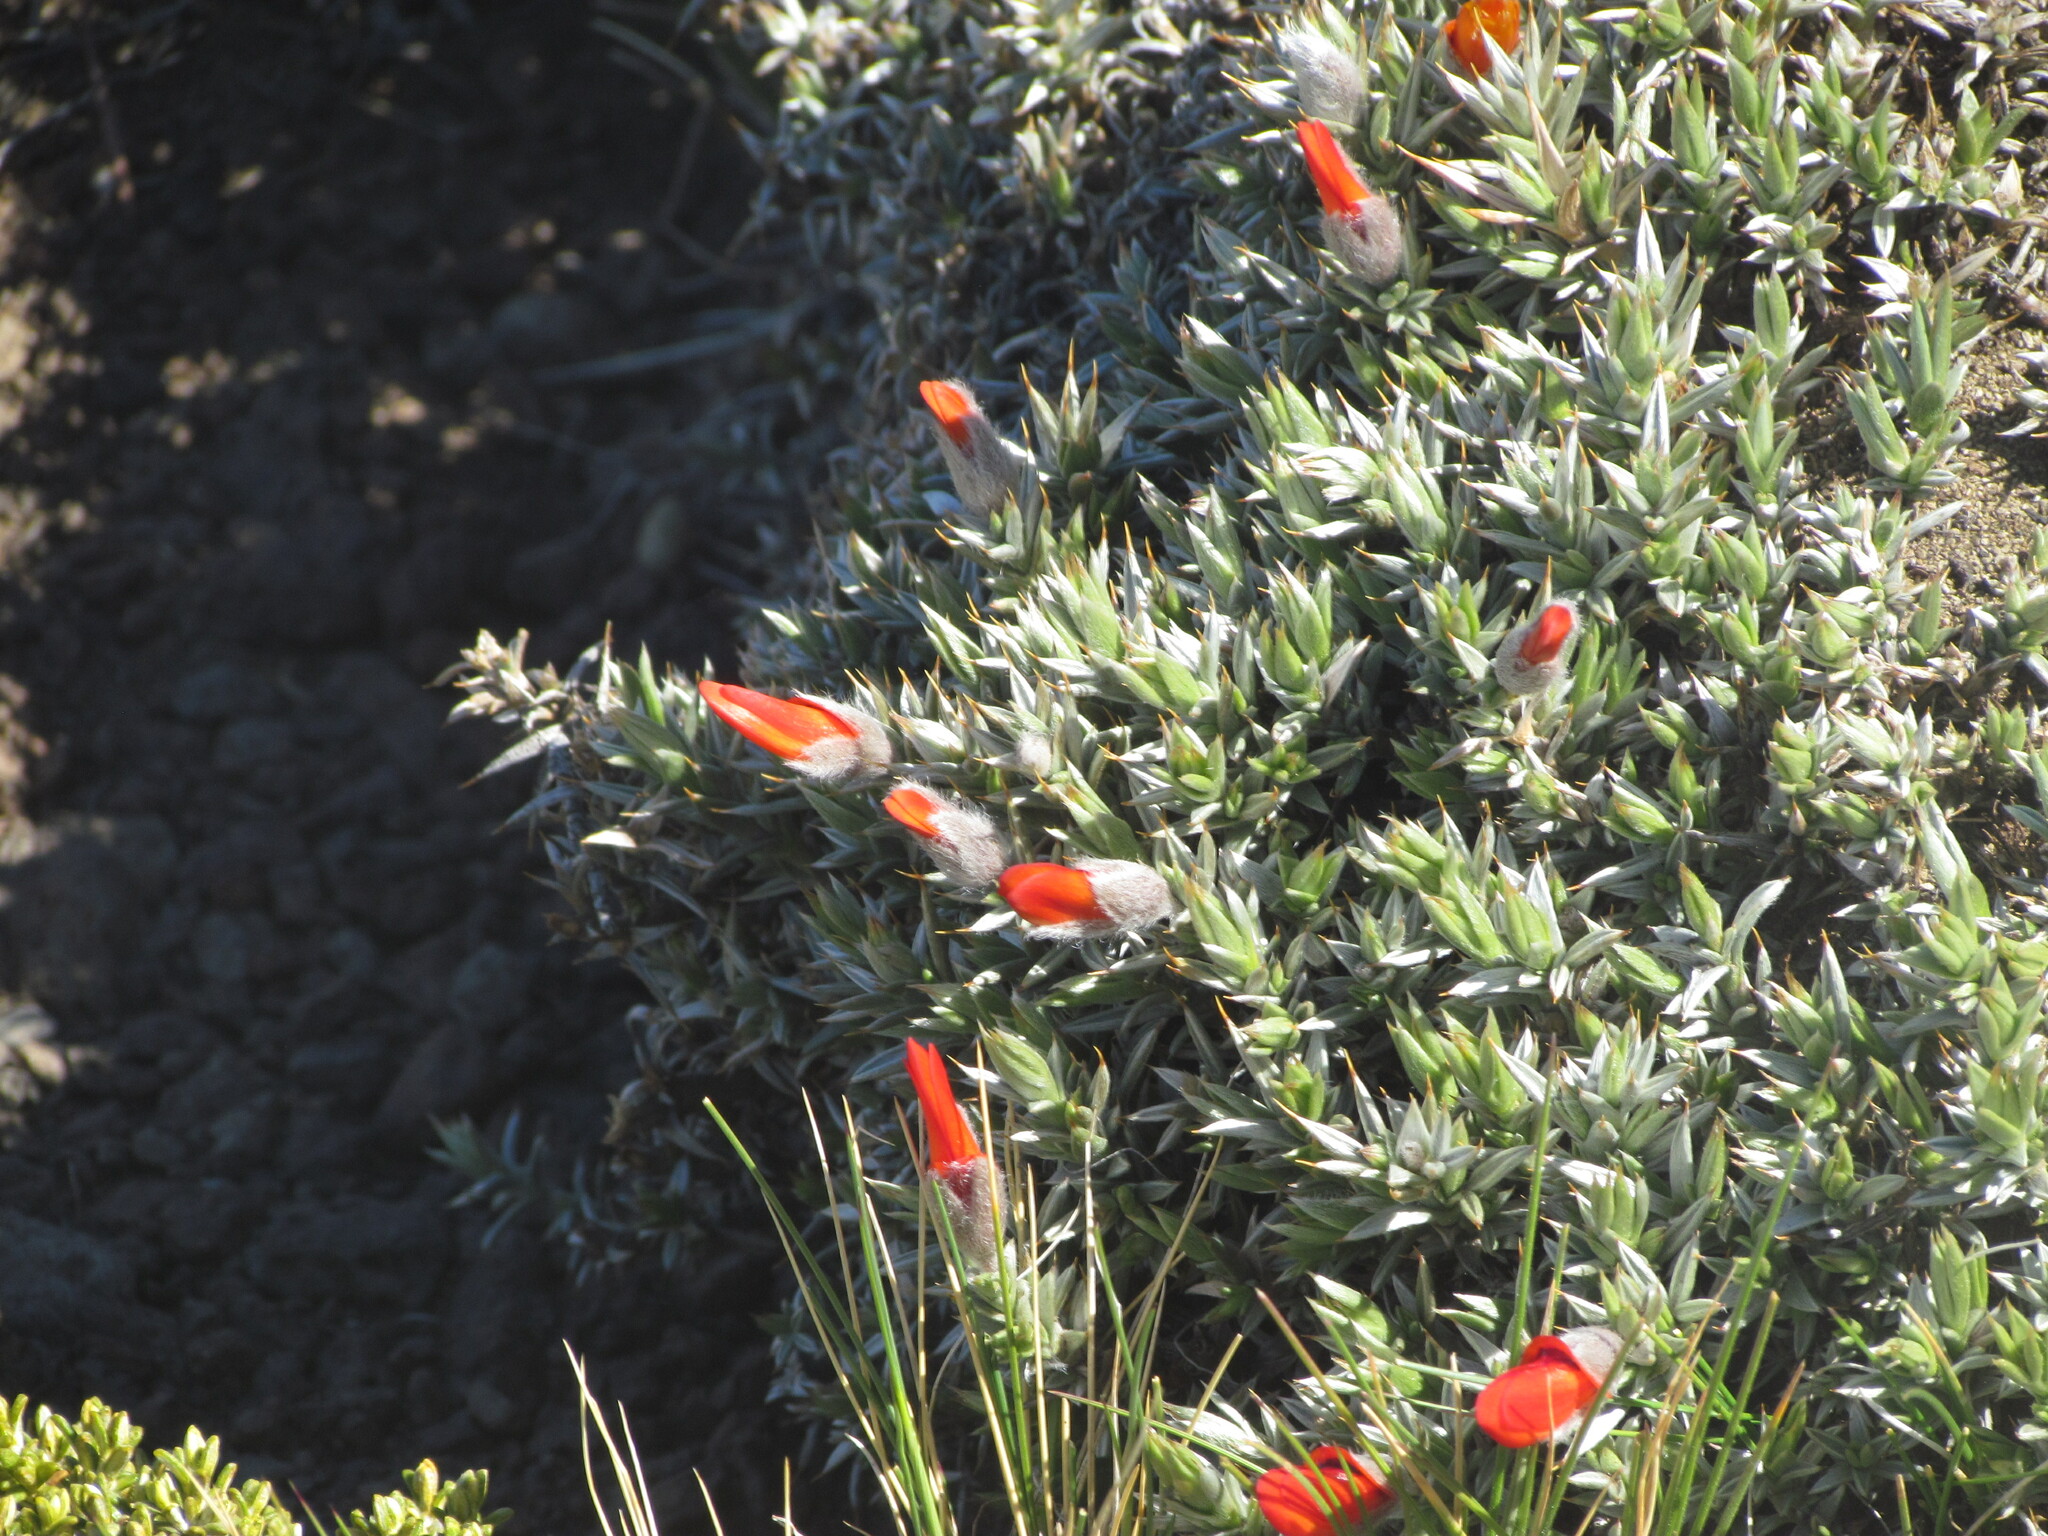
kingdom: Plantae
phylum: Tracheophyta
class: Magnoliopsida
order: Fabales
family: Fabaceae
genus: Anarthrophyllum
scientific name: Anarthrophyllum desideratum
